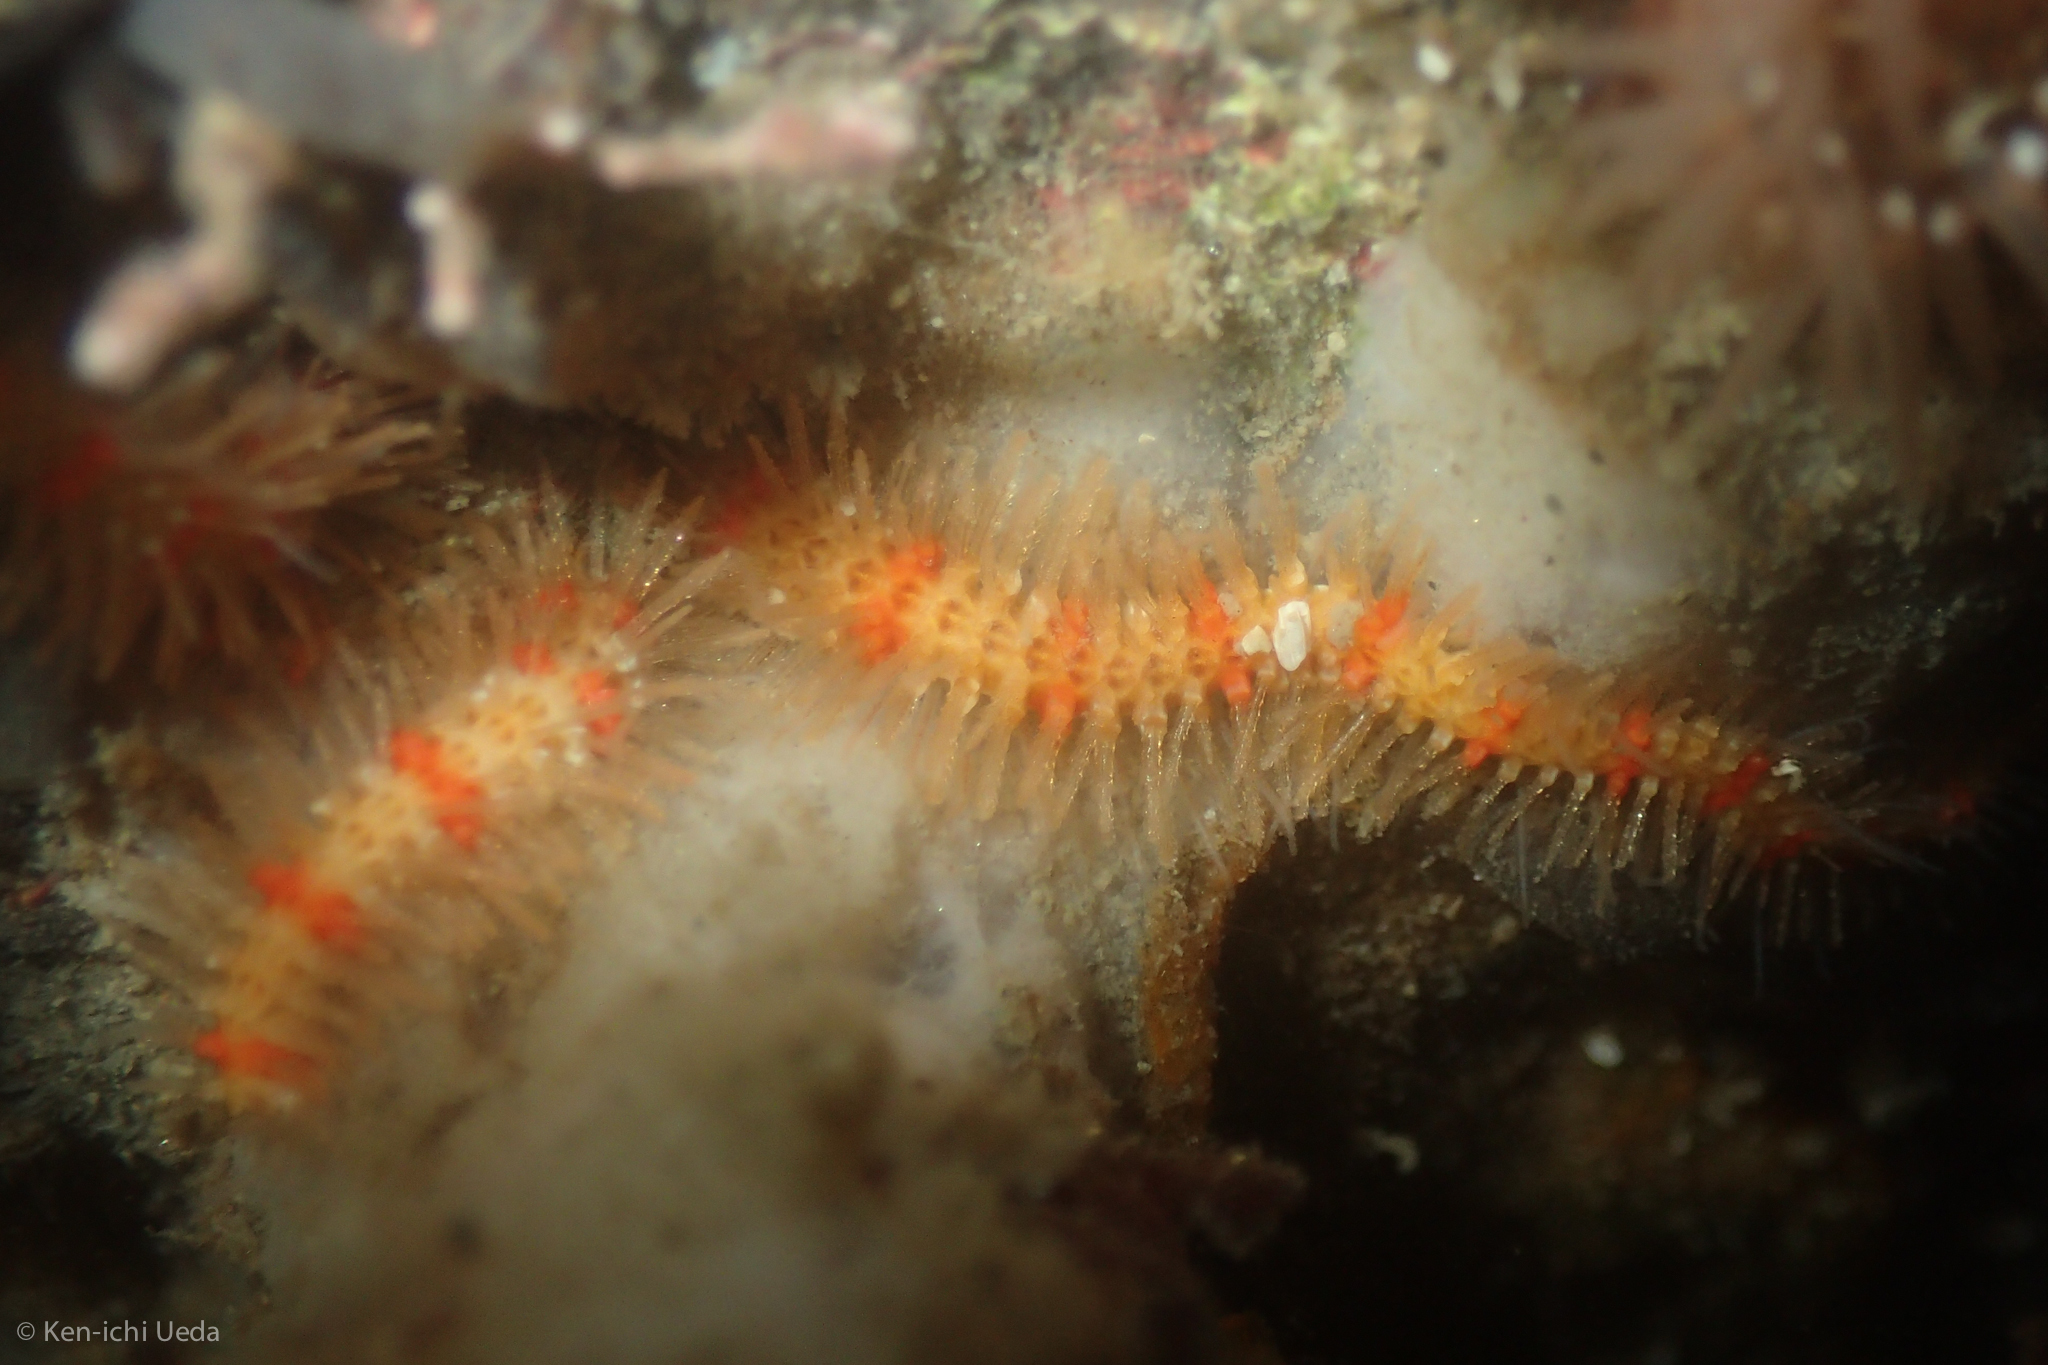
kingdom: Animalia
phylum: Echinodermata
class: Ophiuroidea
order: Amphilepidida
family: Ophiotrichidae
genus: Ophiothrix
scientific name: Ophiothrix spiculata
